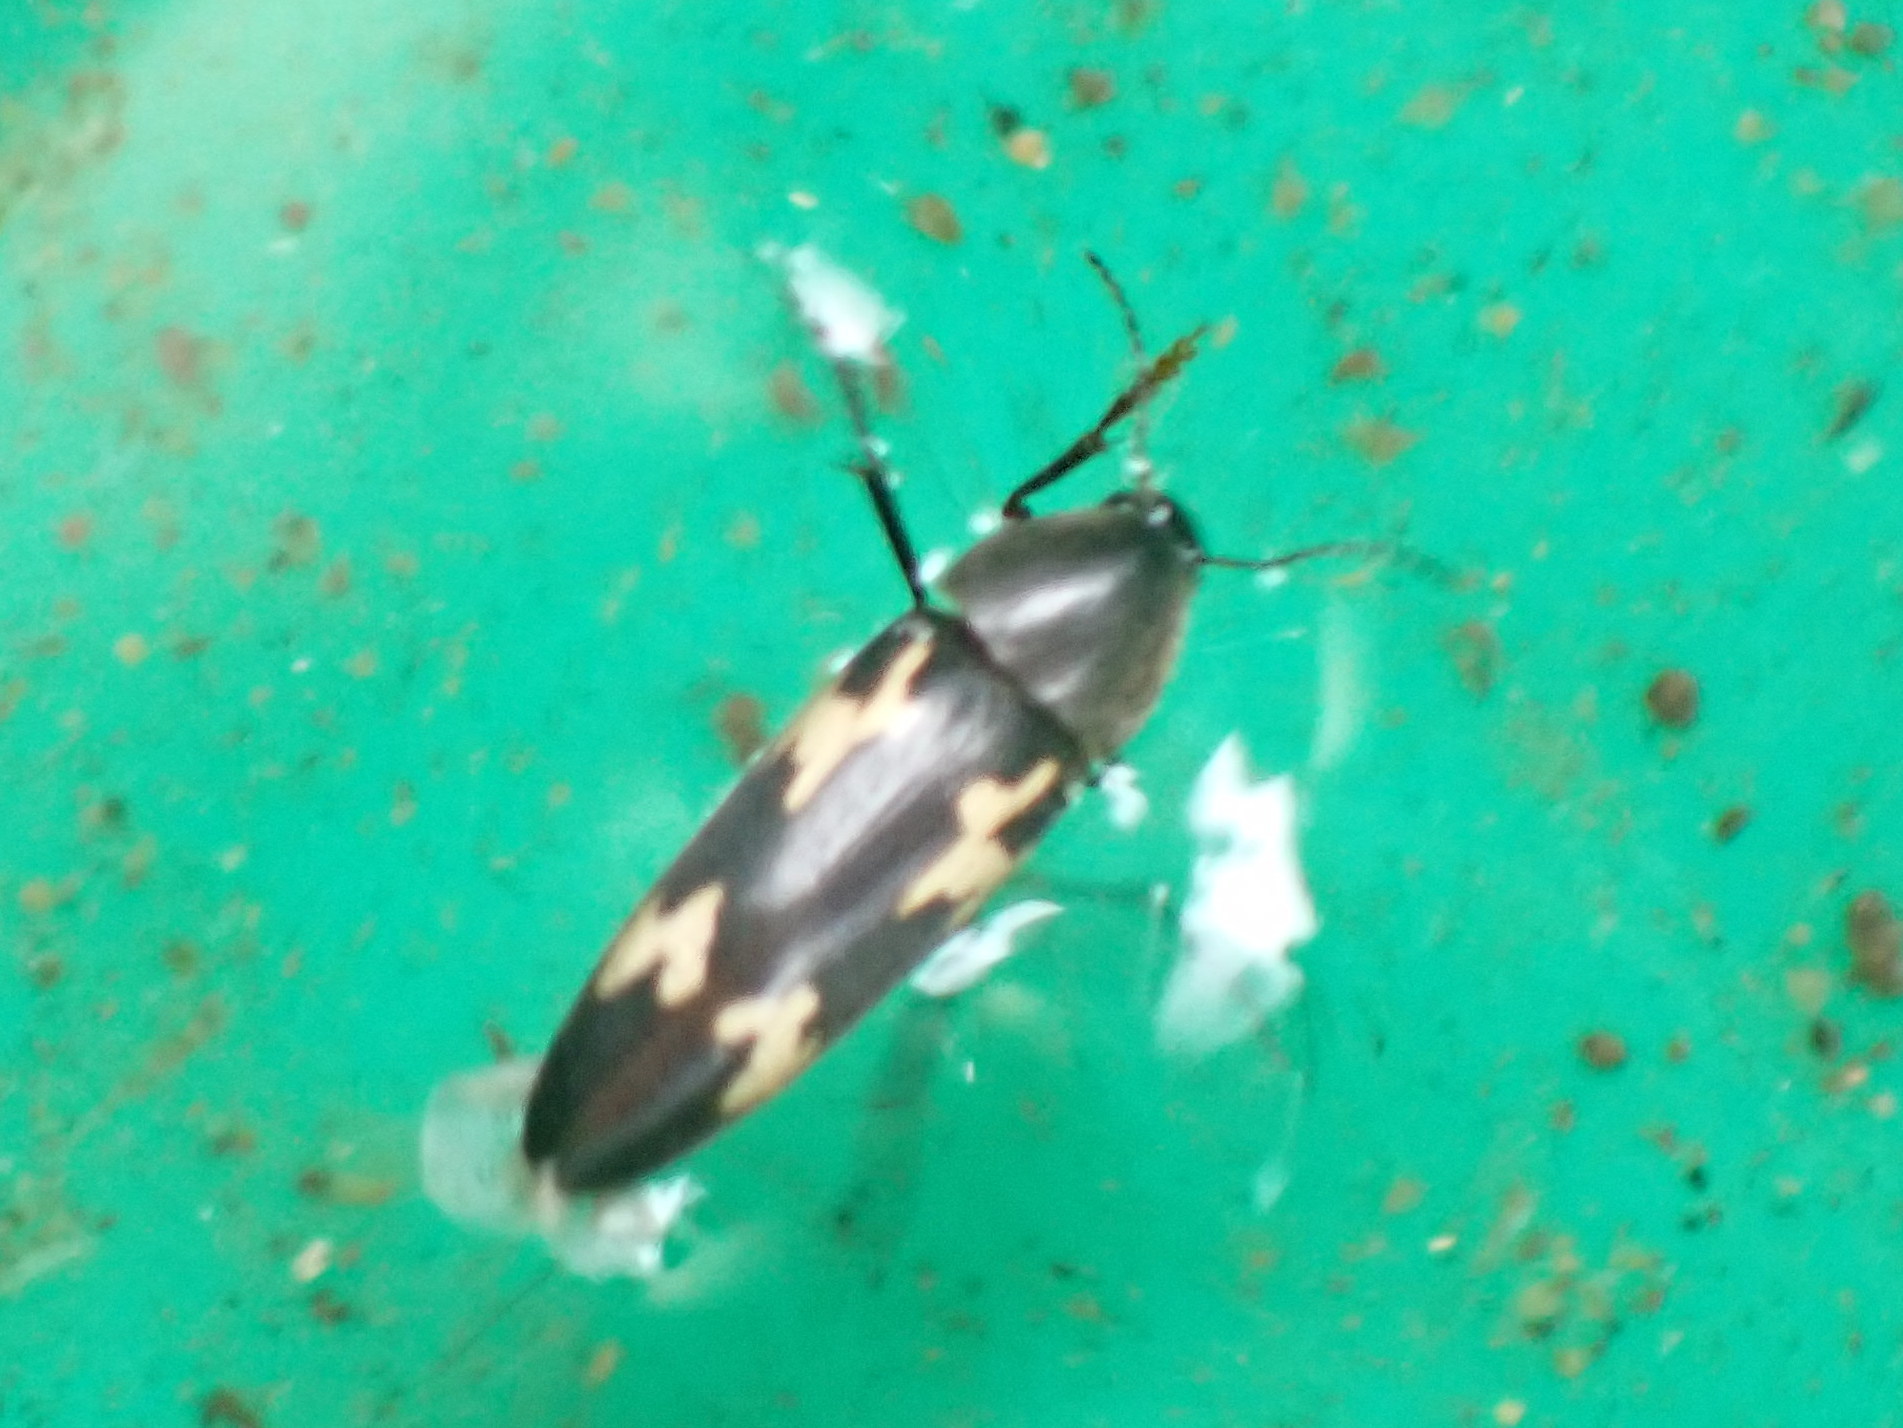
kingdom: Animalia
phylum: Arthropoda
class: Insecta
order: Coleoptera
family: Melandryidae
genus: Dircaea
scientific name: Dircaea liturata
